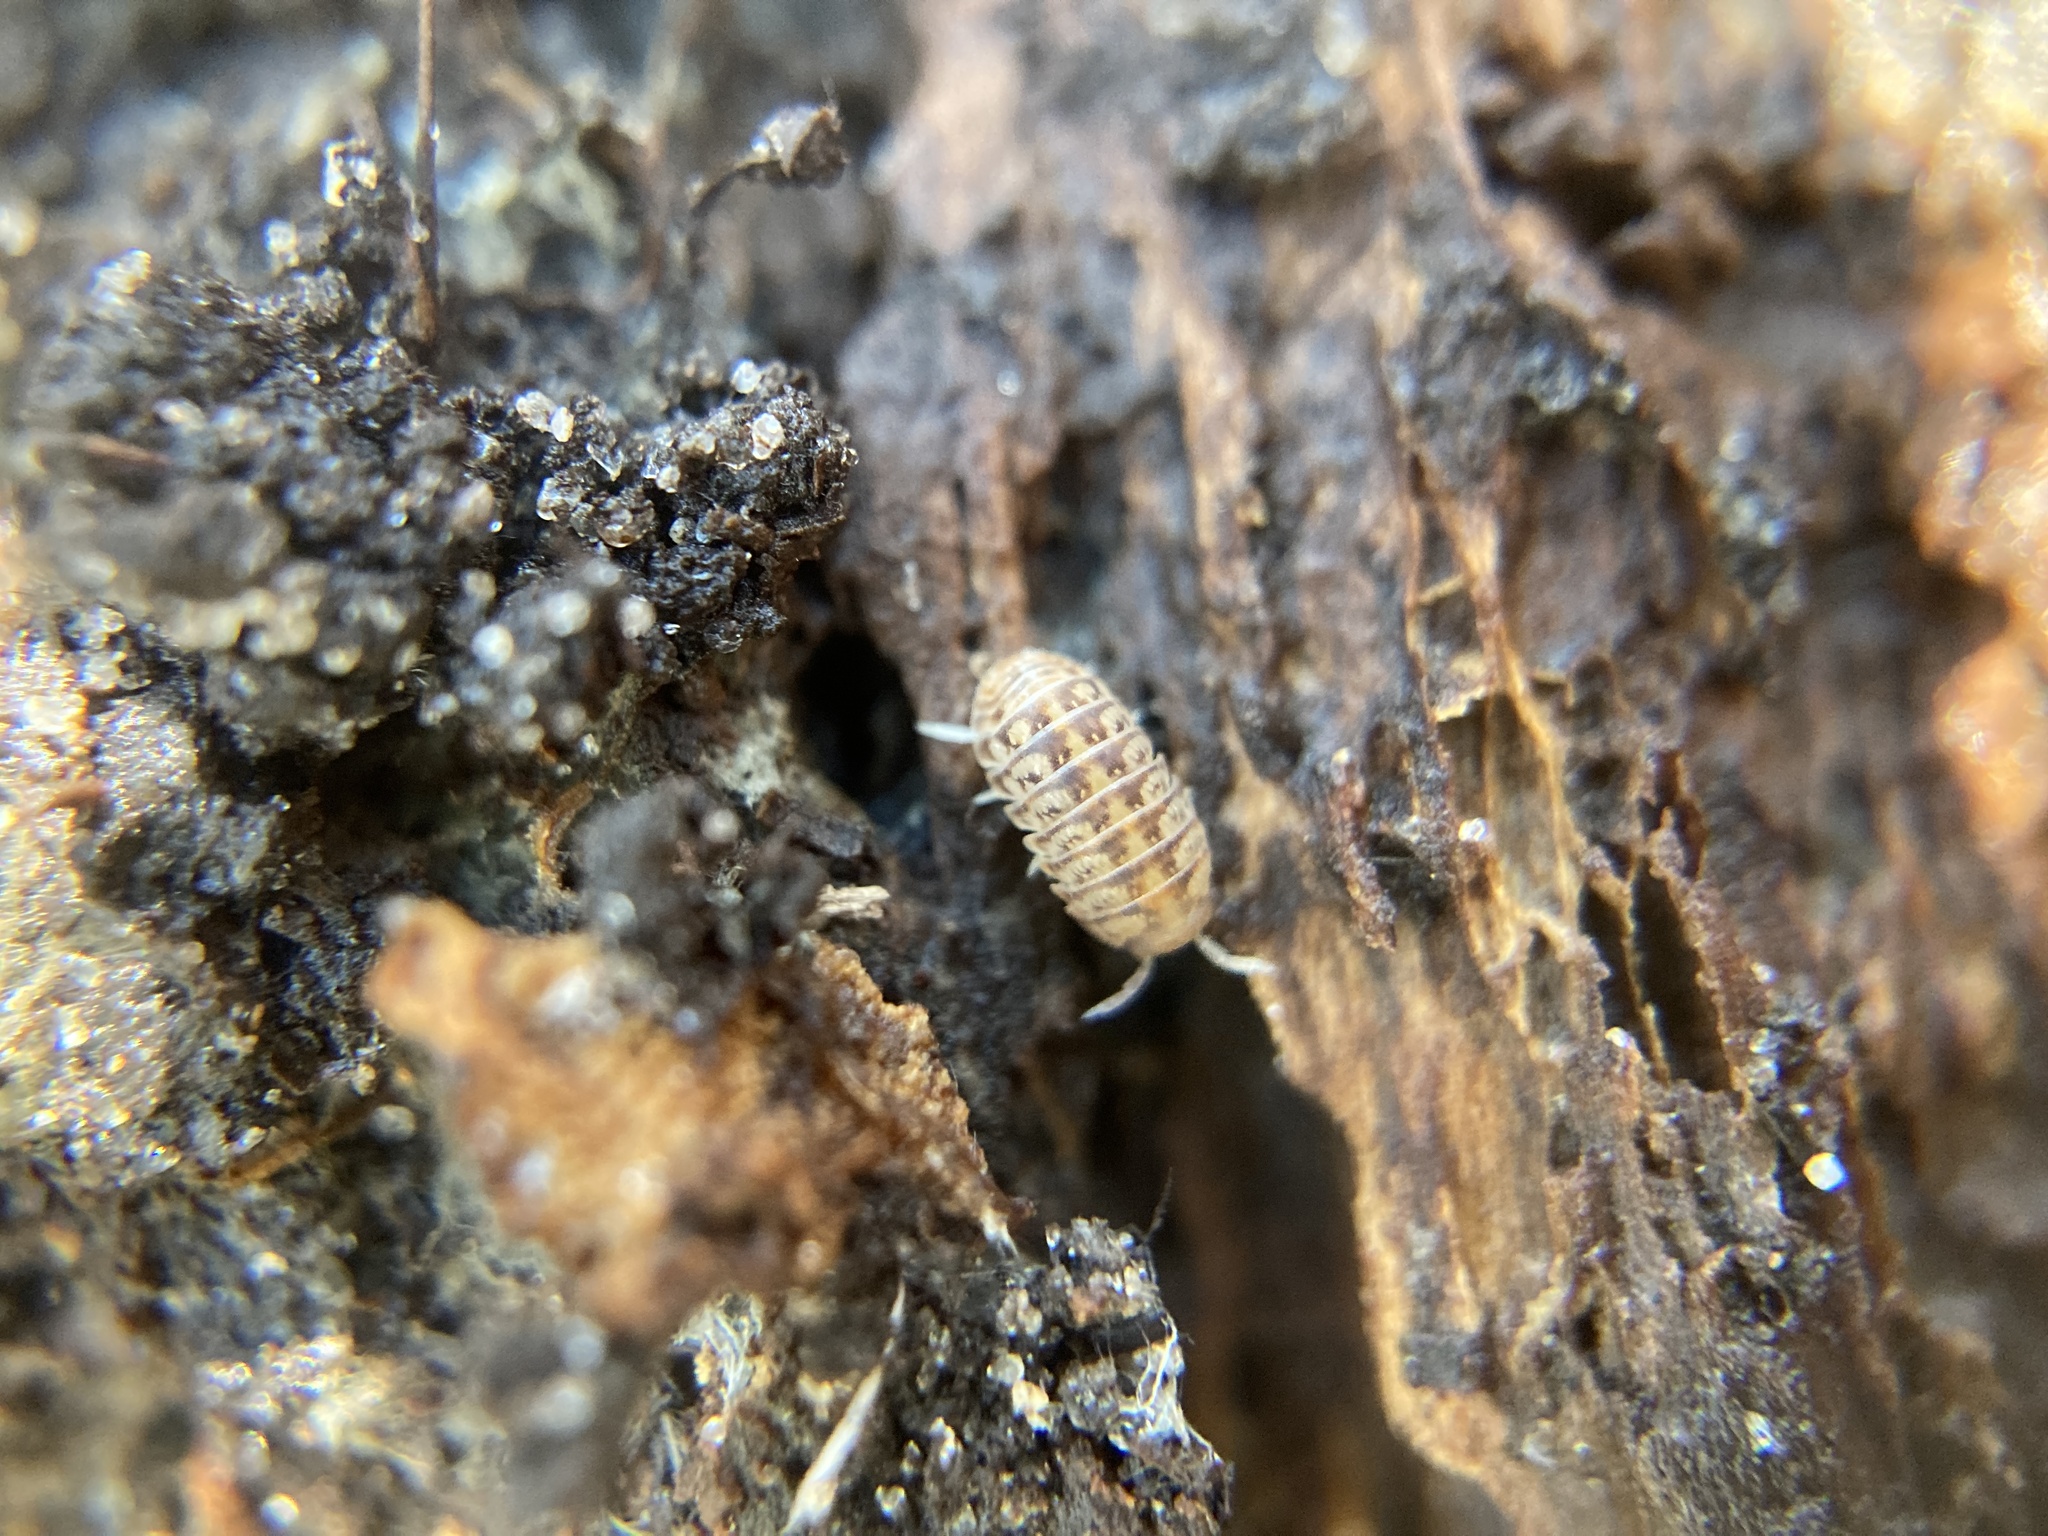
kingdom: Animalia
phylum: Arthropoda
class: Malacostraca
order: Isopoda
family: Armadillidae
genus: Venezillo
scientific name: Venezillo parvus
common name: Pillbug
